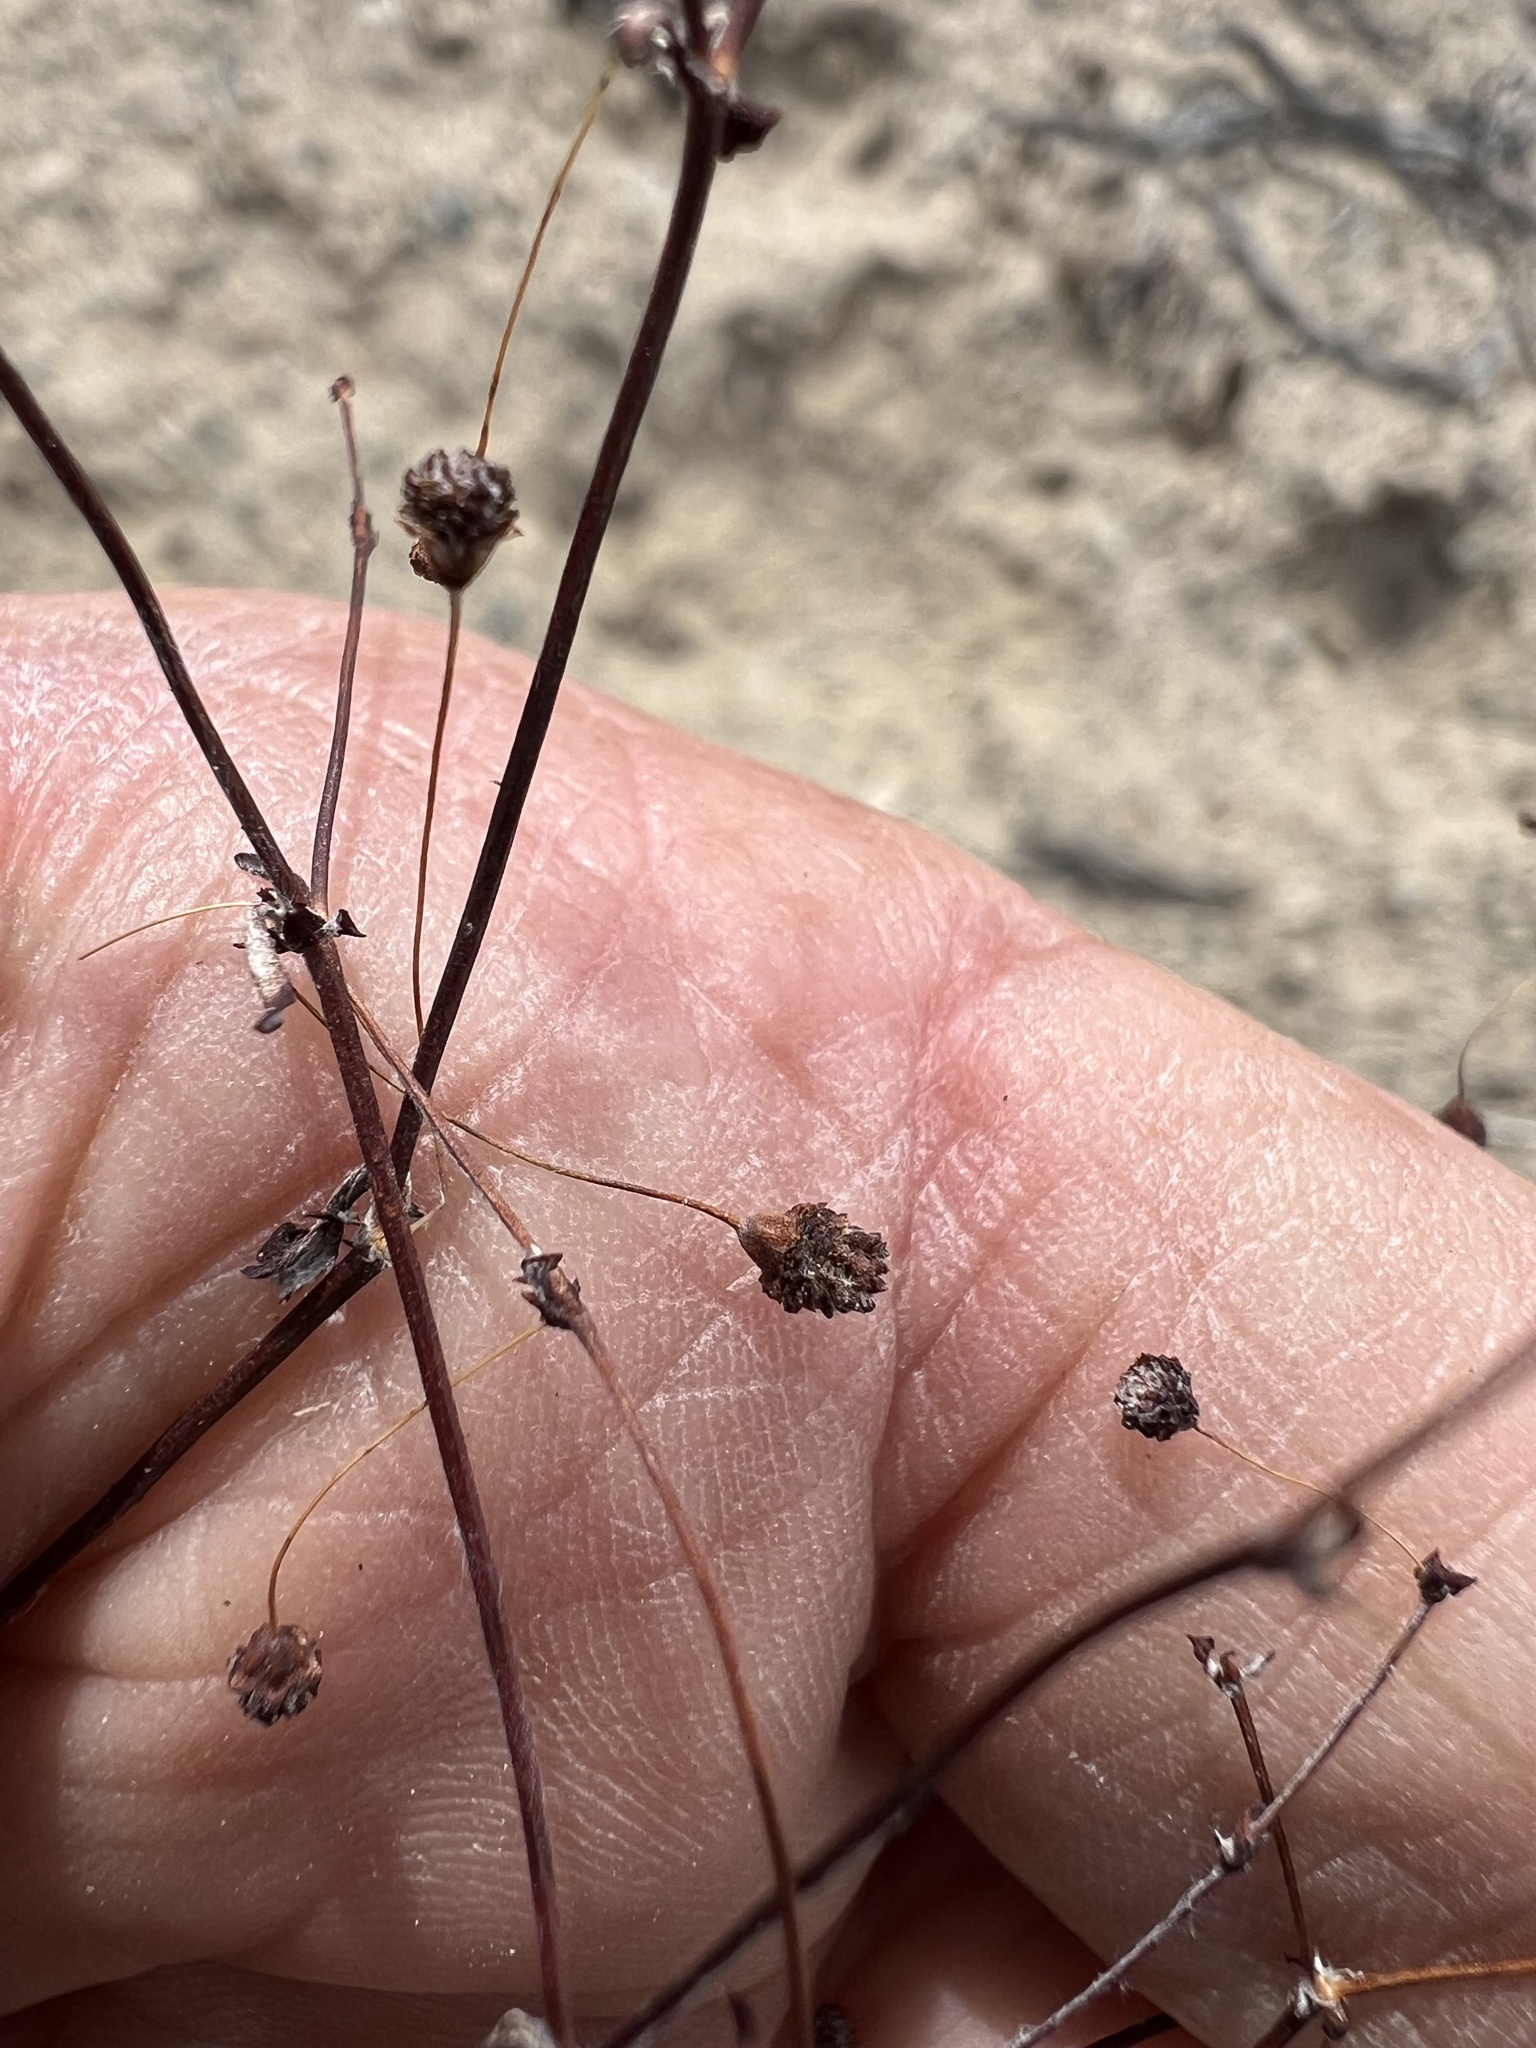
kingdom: Plantae
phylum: Tracheophyta
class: Magnoliopsida
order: Caryophyllales
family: Polygonaceae
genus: Eriogonum
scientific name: Eriogonum maculatum
